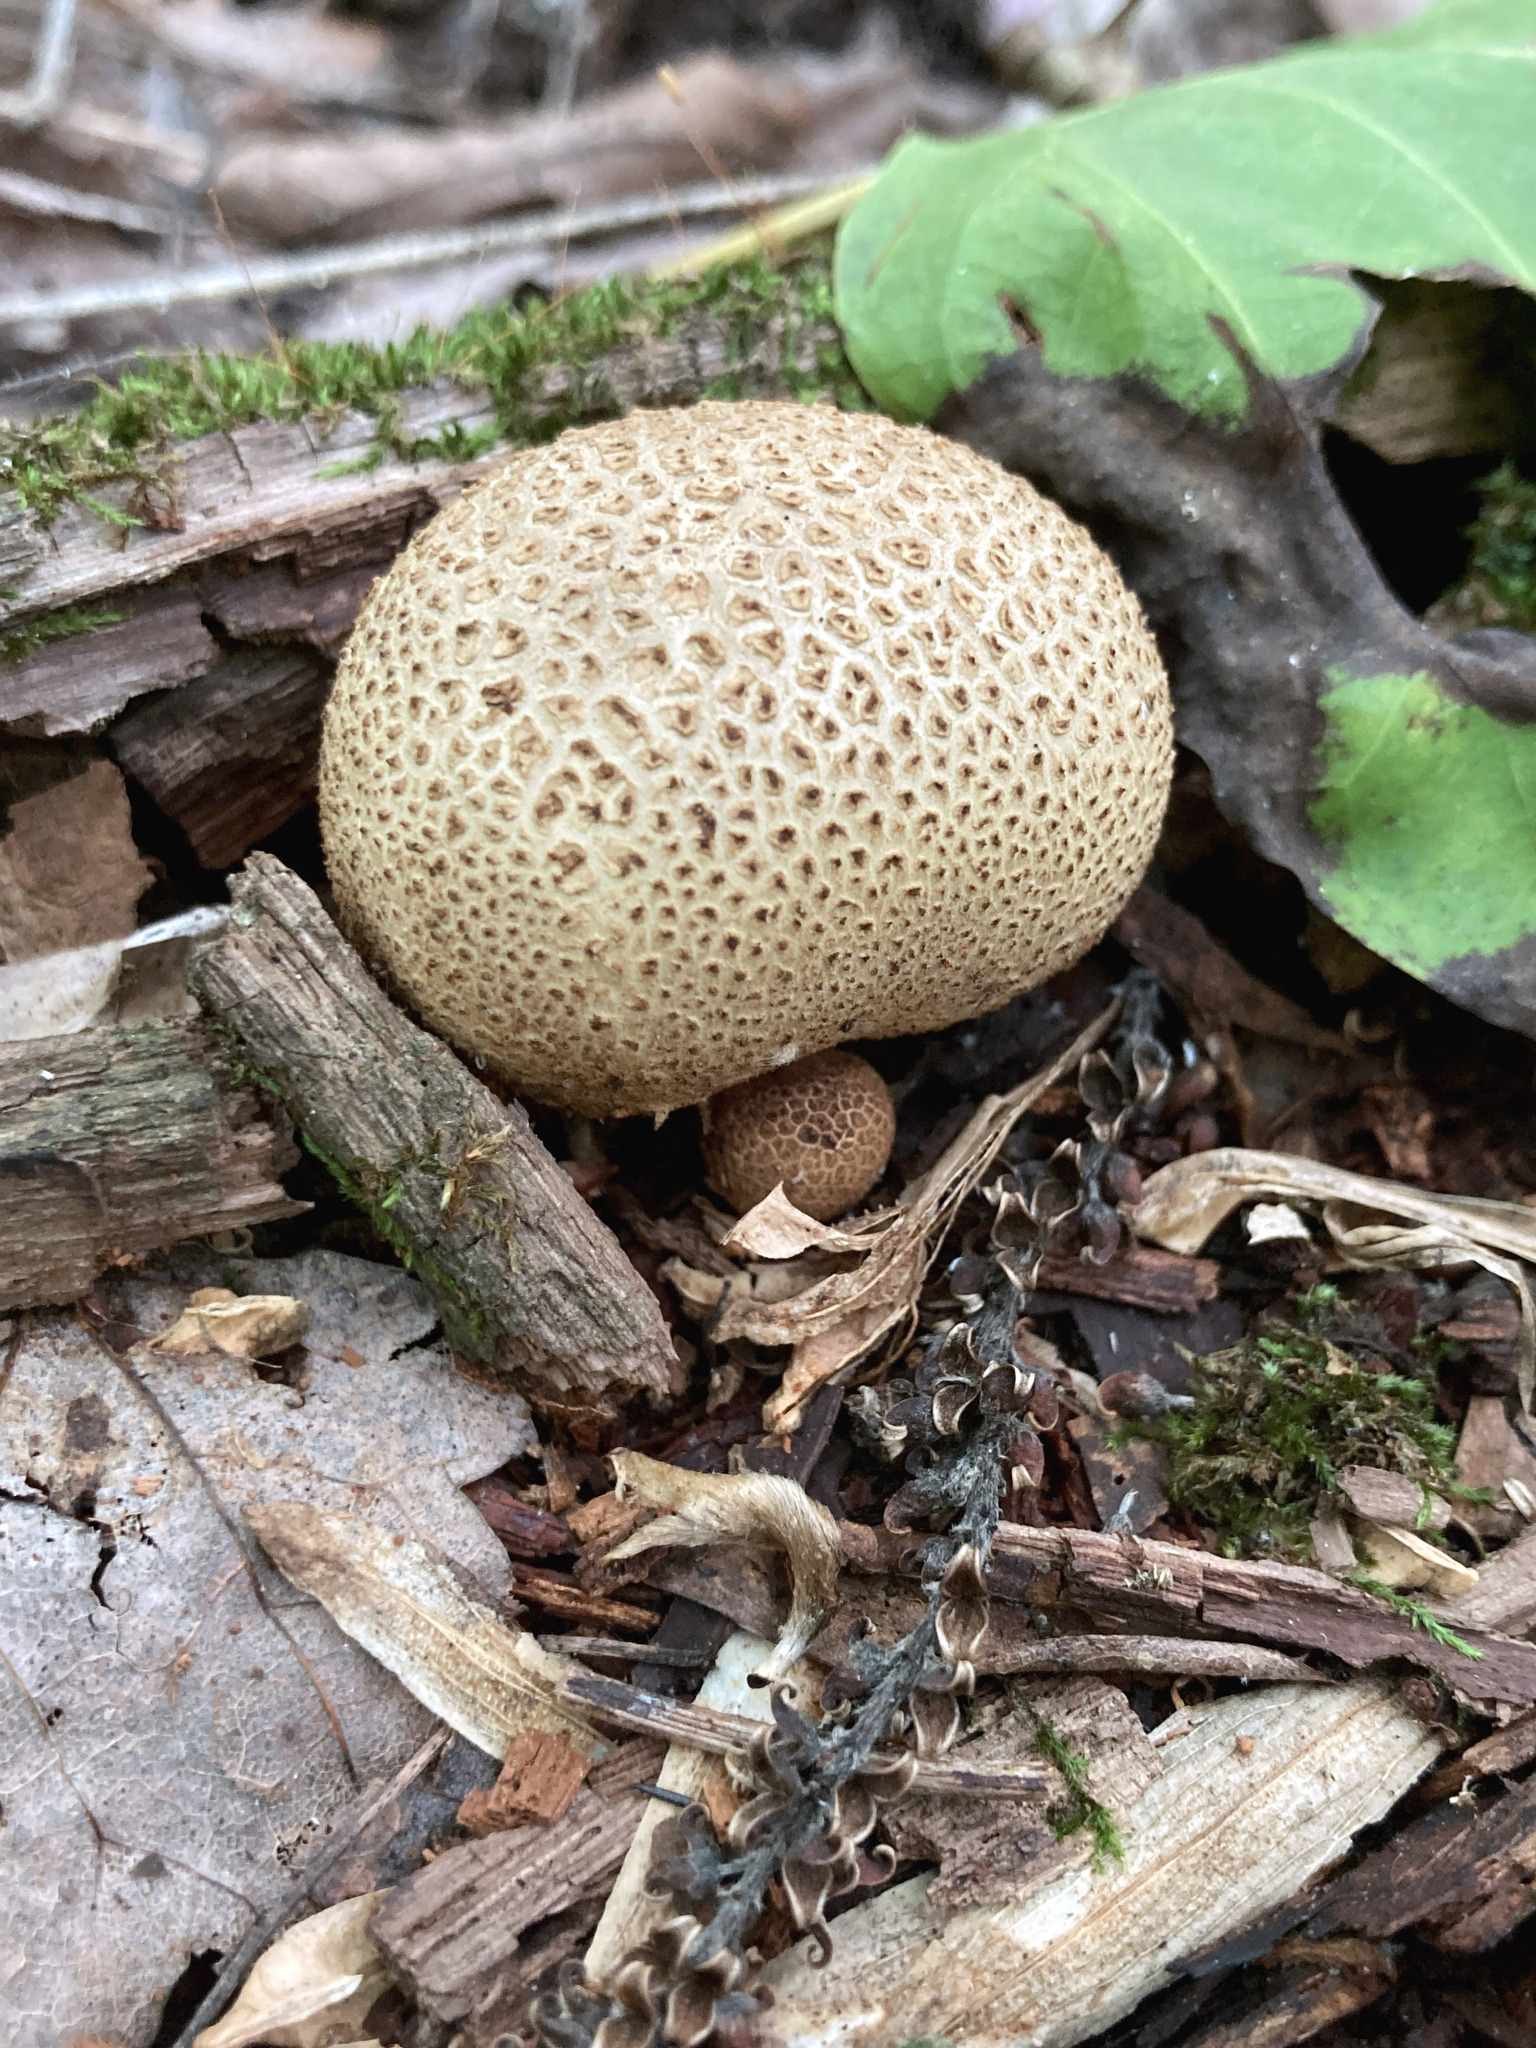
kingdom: Fungi
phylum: Basidiomycota
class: Agaricomycetes
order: Boletales
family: Sclerodermataceae
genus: Scleroderma
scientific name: Scleroderma citrinum
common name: Common earthball
